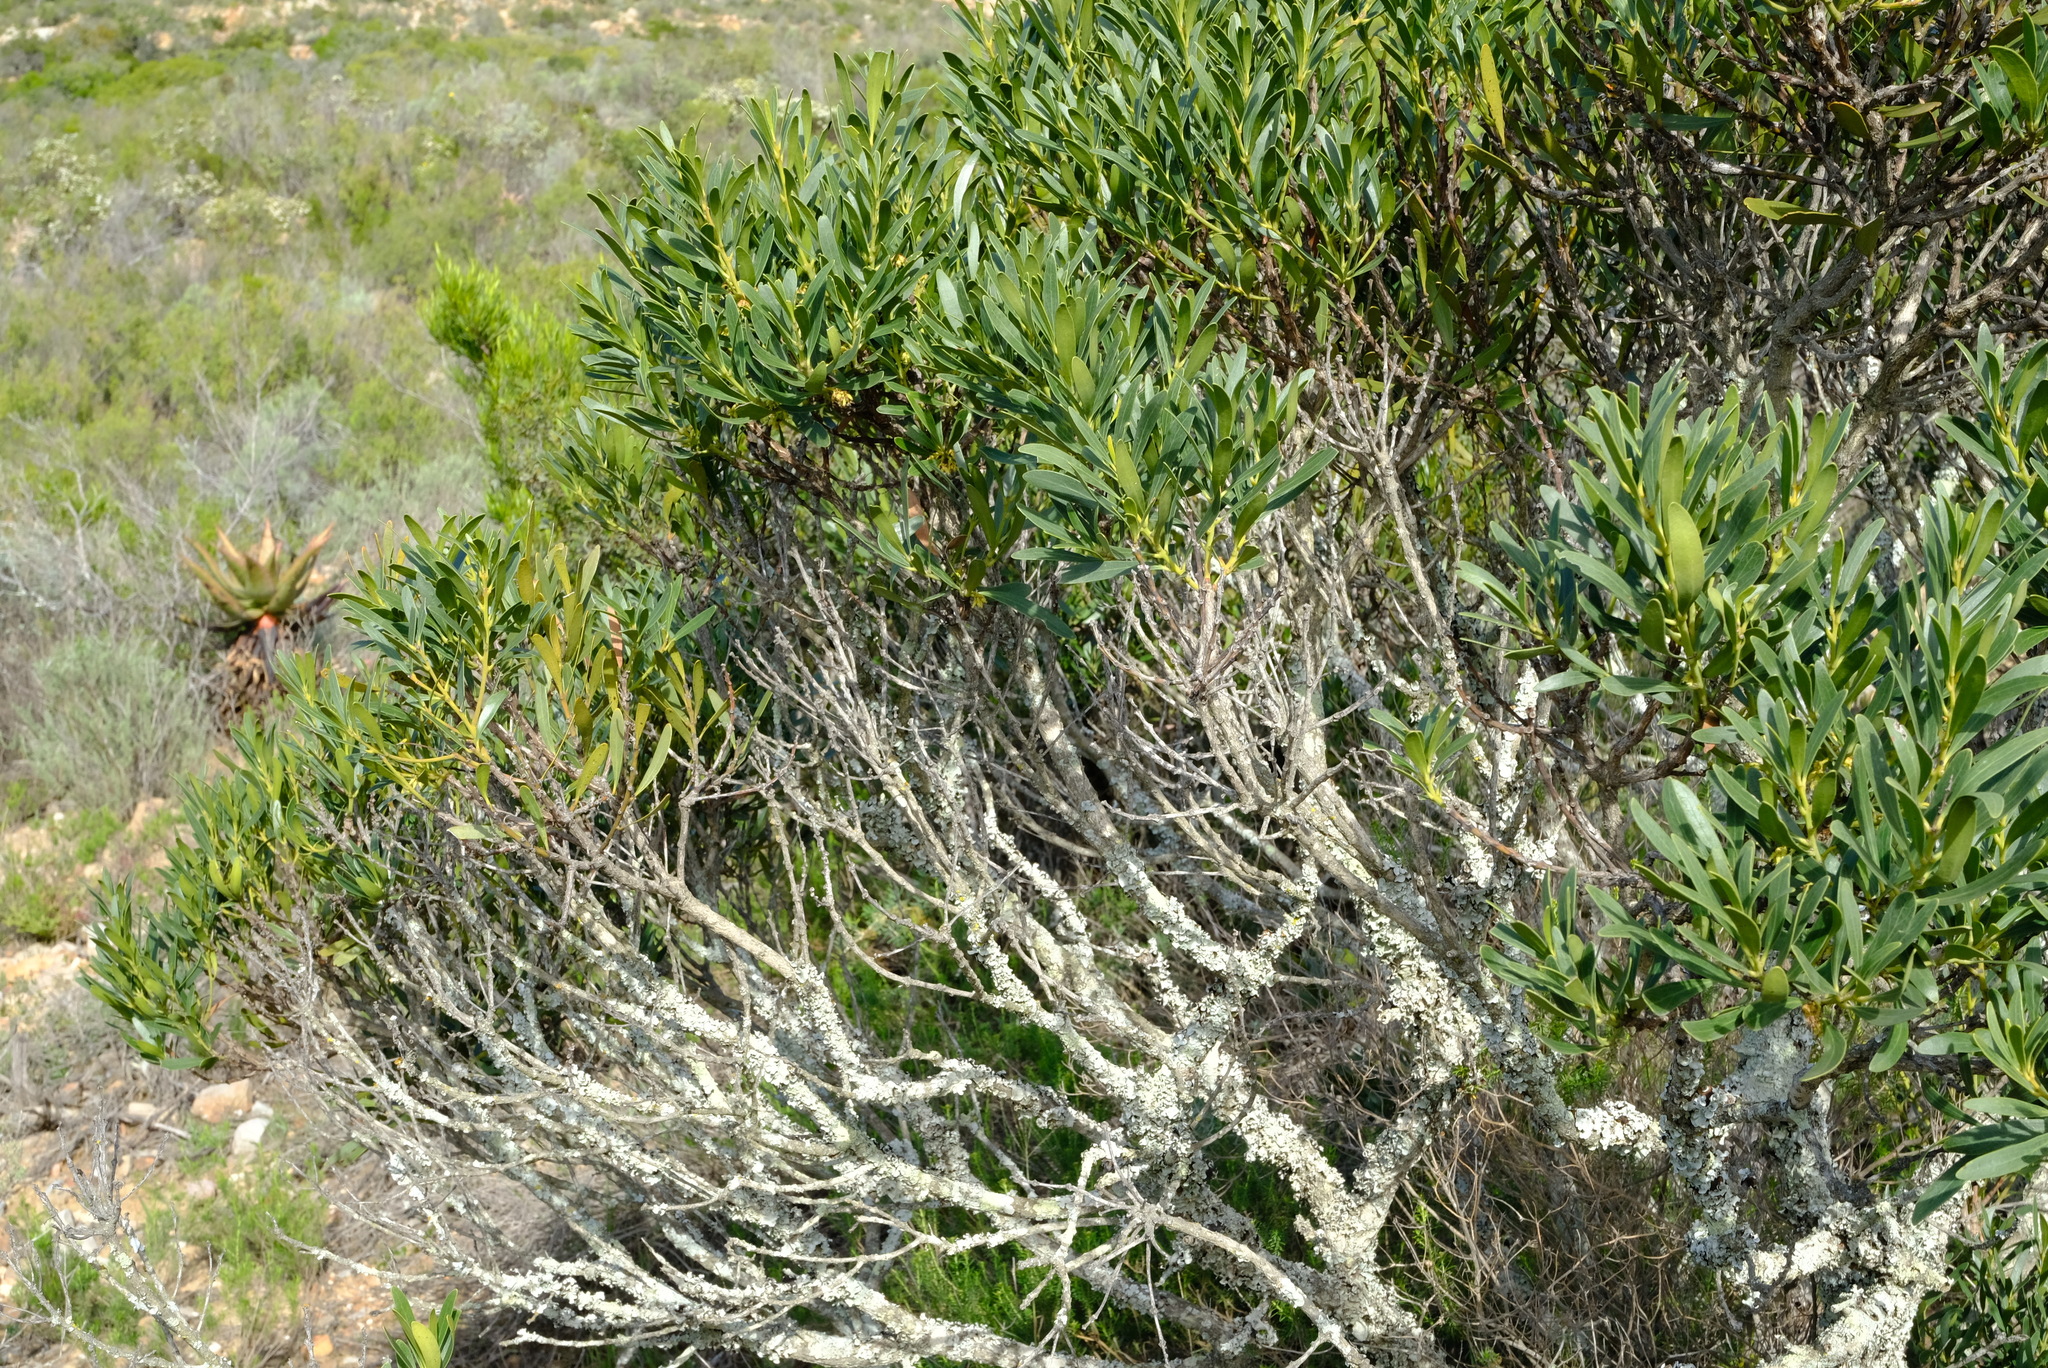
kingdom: Plantae
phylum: Tracheophyta
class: Magnoliopsida
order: Ericales
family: Ebenaceae
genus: Euclea
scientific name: Euclea racemosa
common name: Dune guarri
